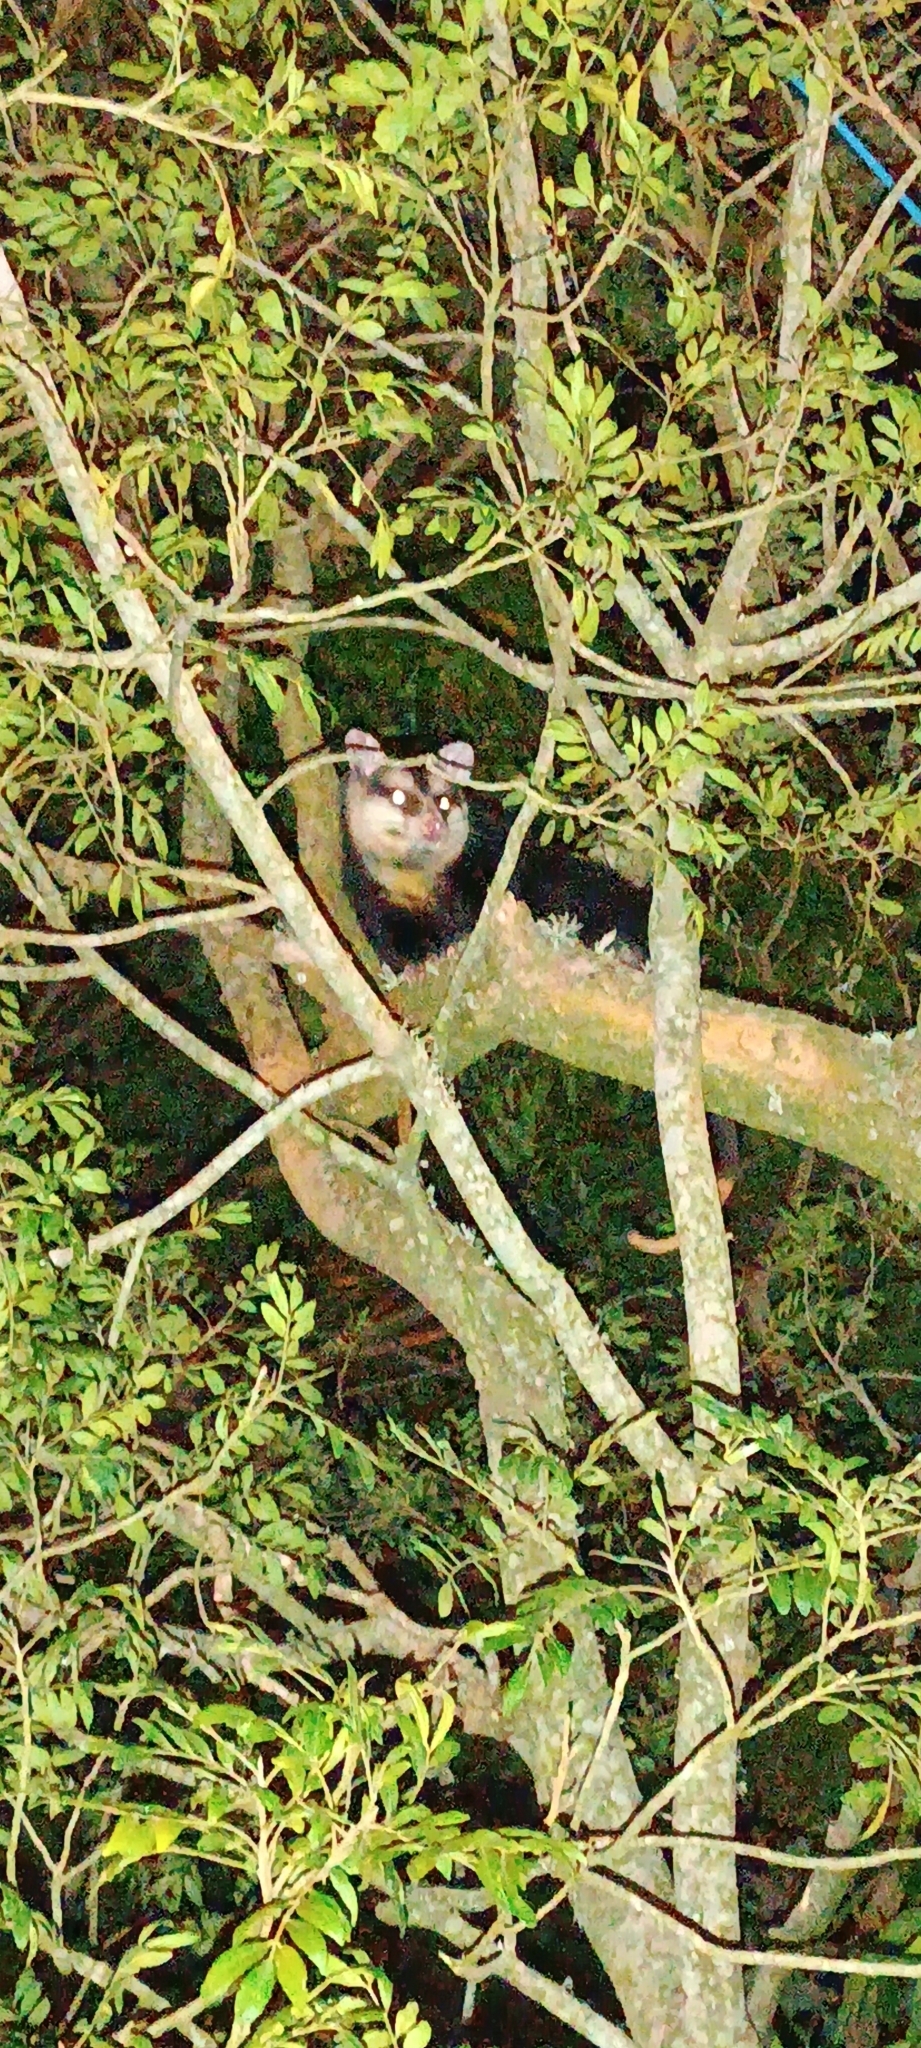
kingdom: Animalia
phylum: Chordata
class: Mammalia
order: Didelphimorphia
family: Didelphidae
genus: Didelphis
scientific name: Didelphis albiventris
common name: White-eared opossum
